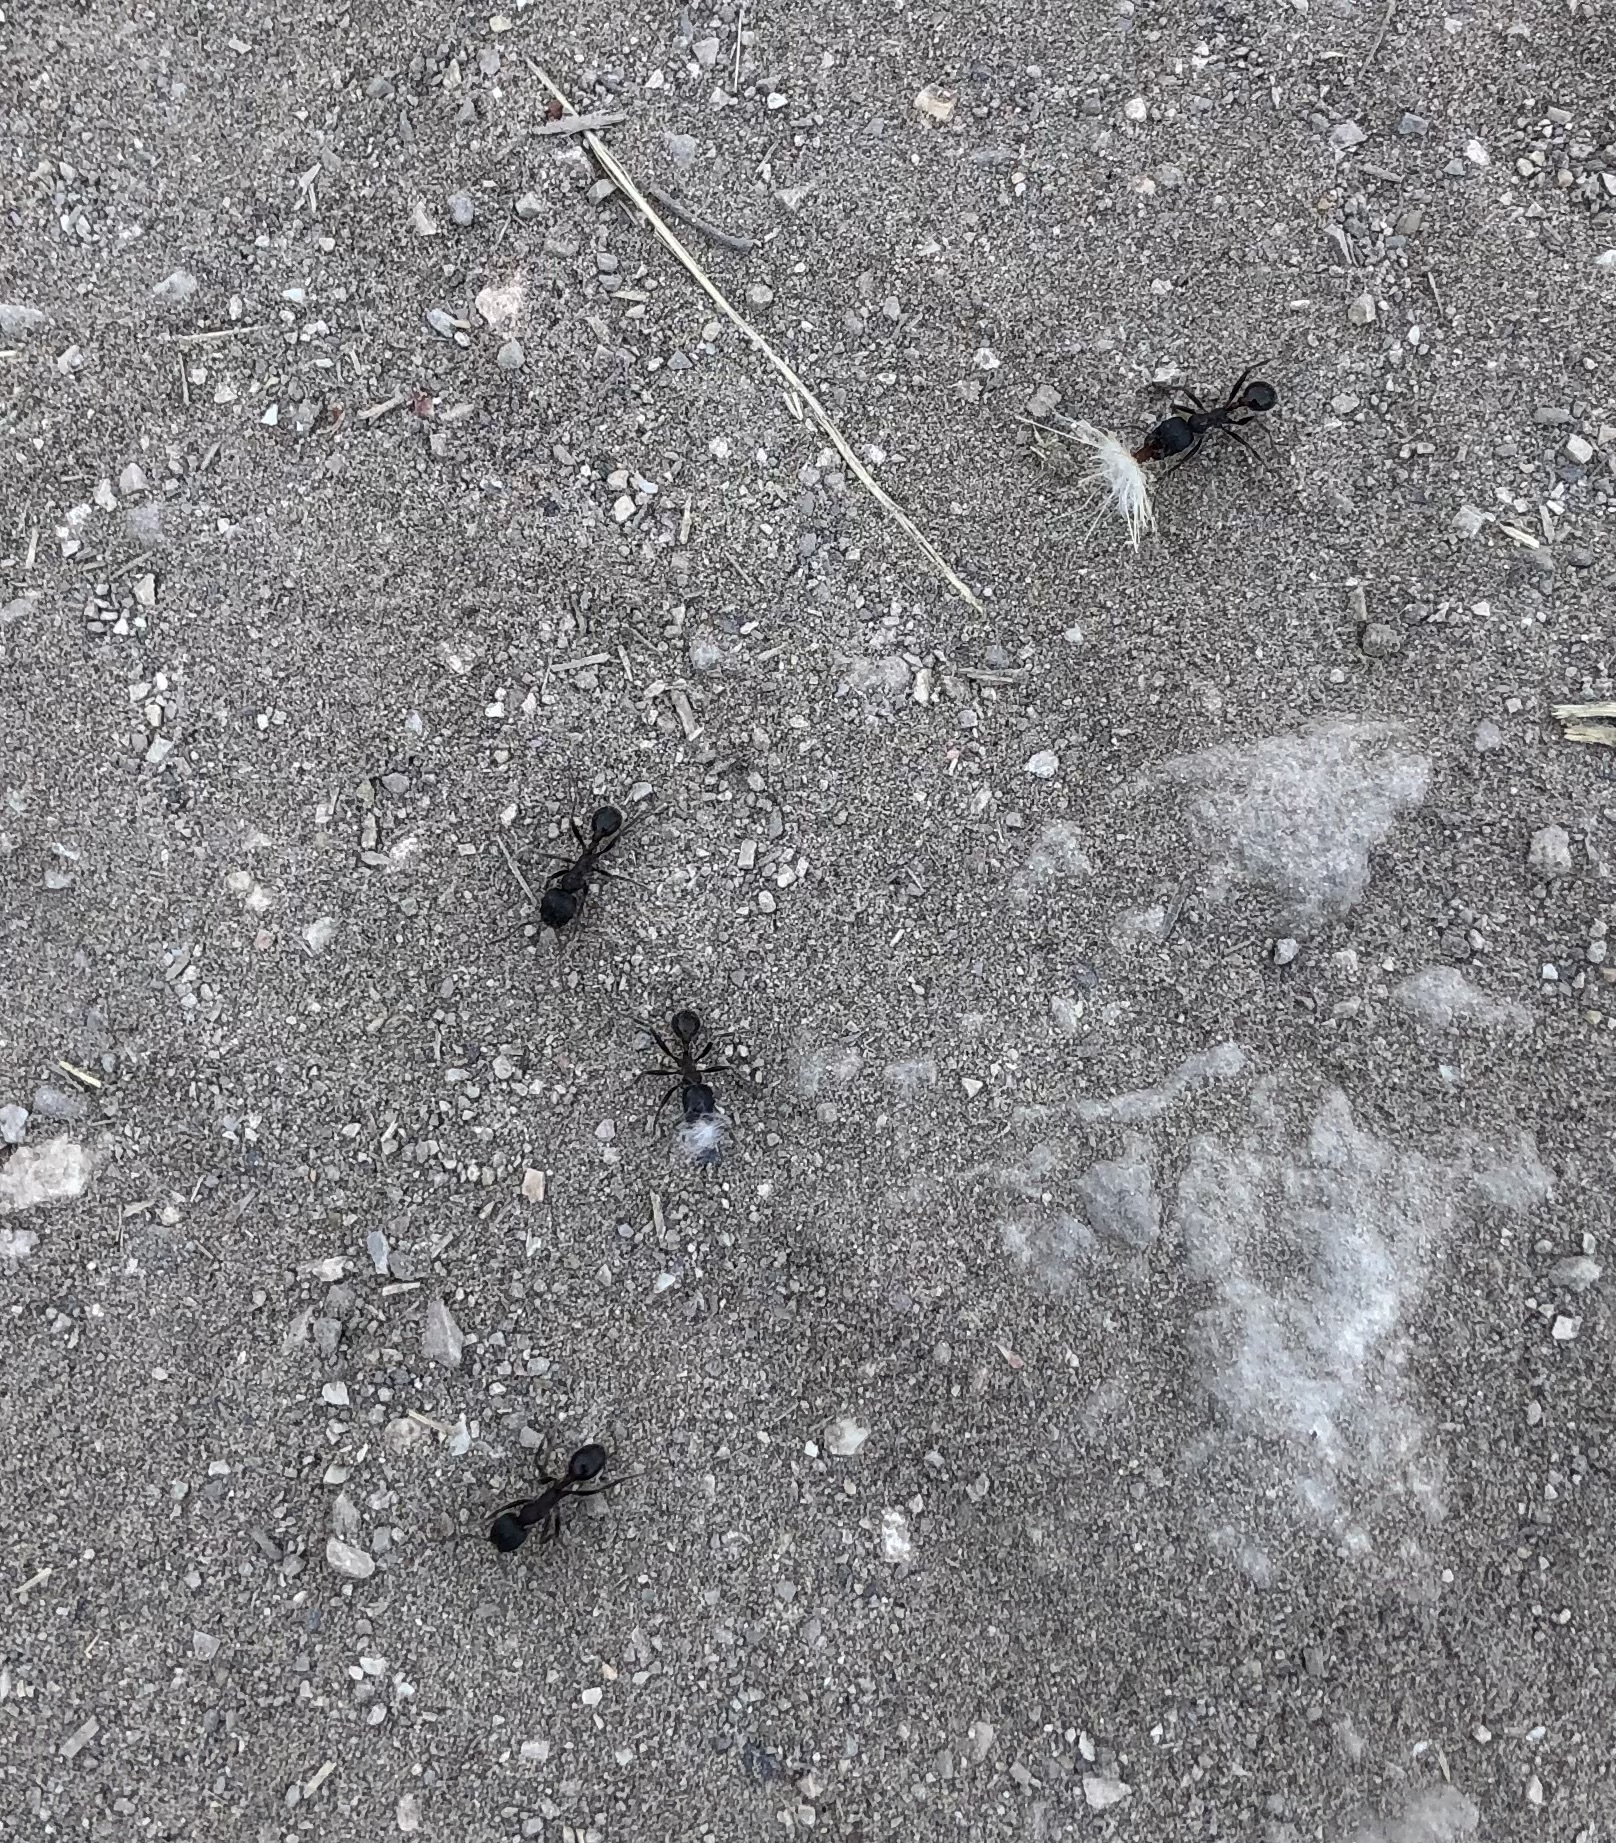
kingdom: Animalia
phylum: Arthropoda
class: Insecta
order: Hymenoptera
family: Formicidae
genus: Veromessor
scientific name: Veromessor andrei
